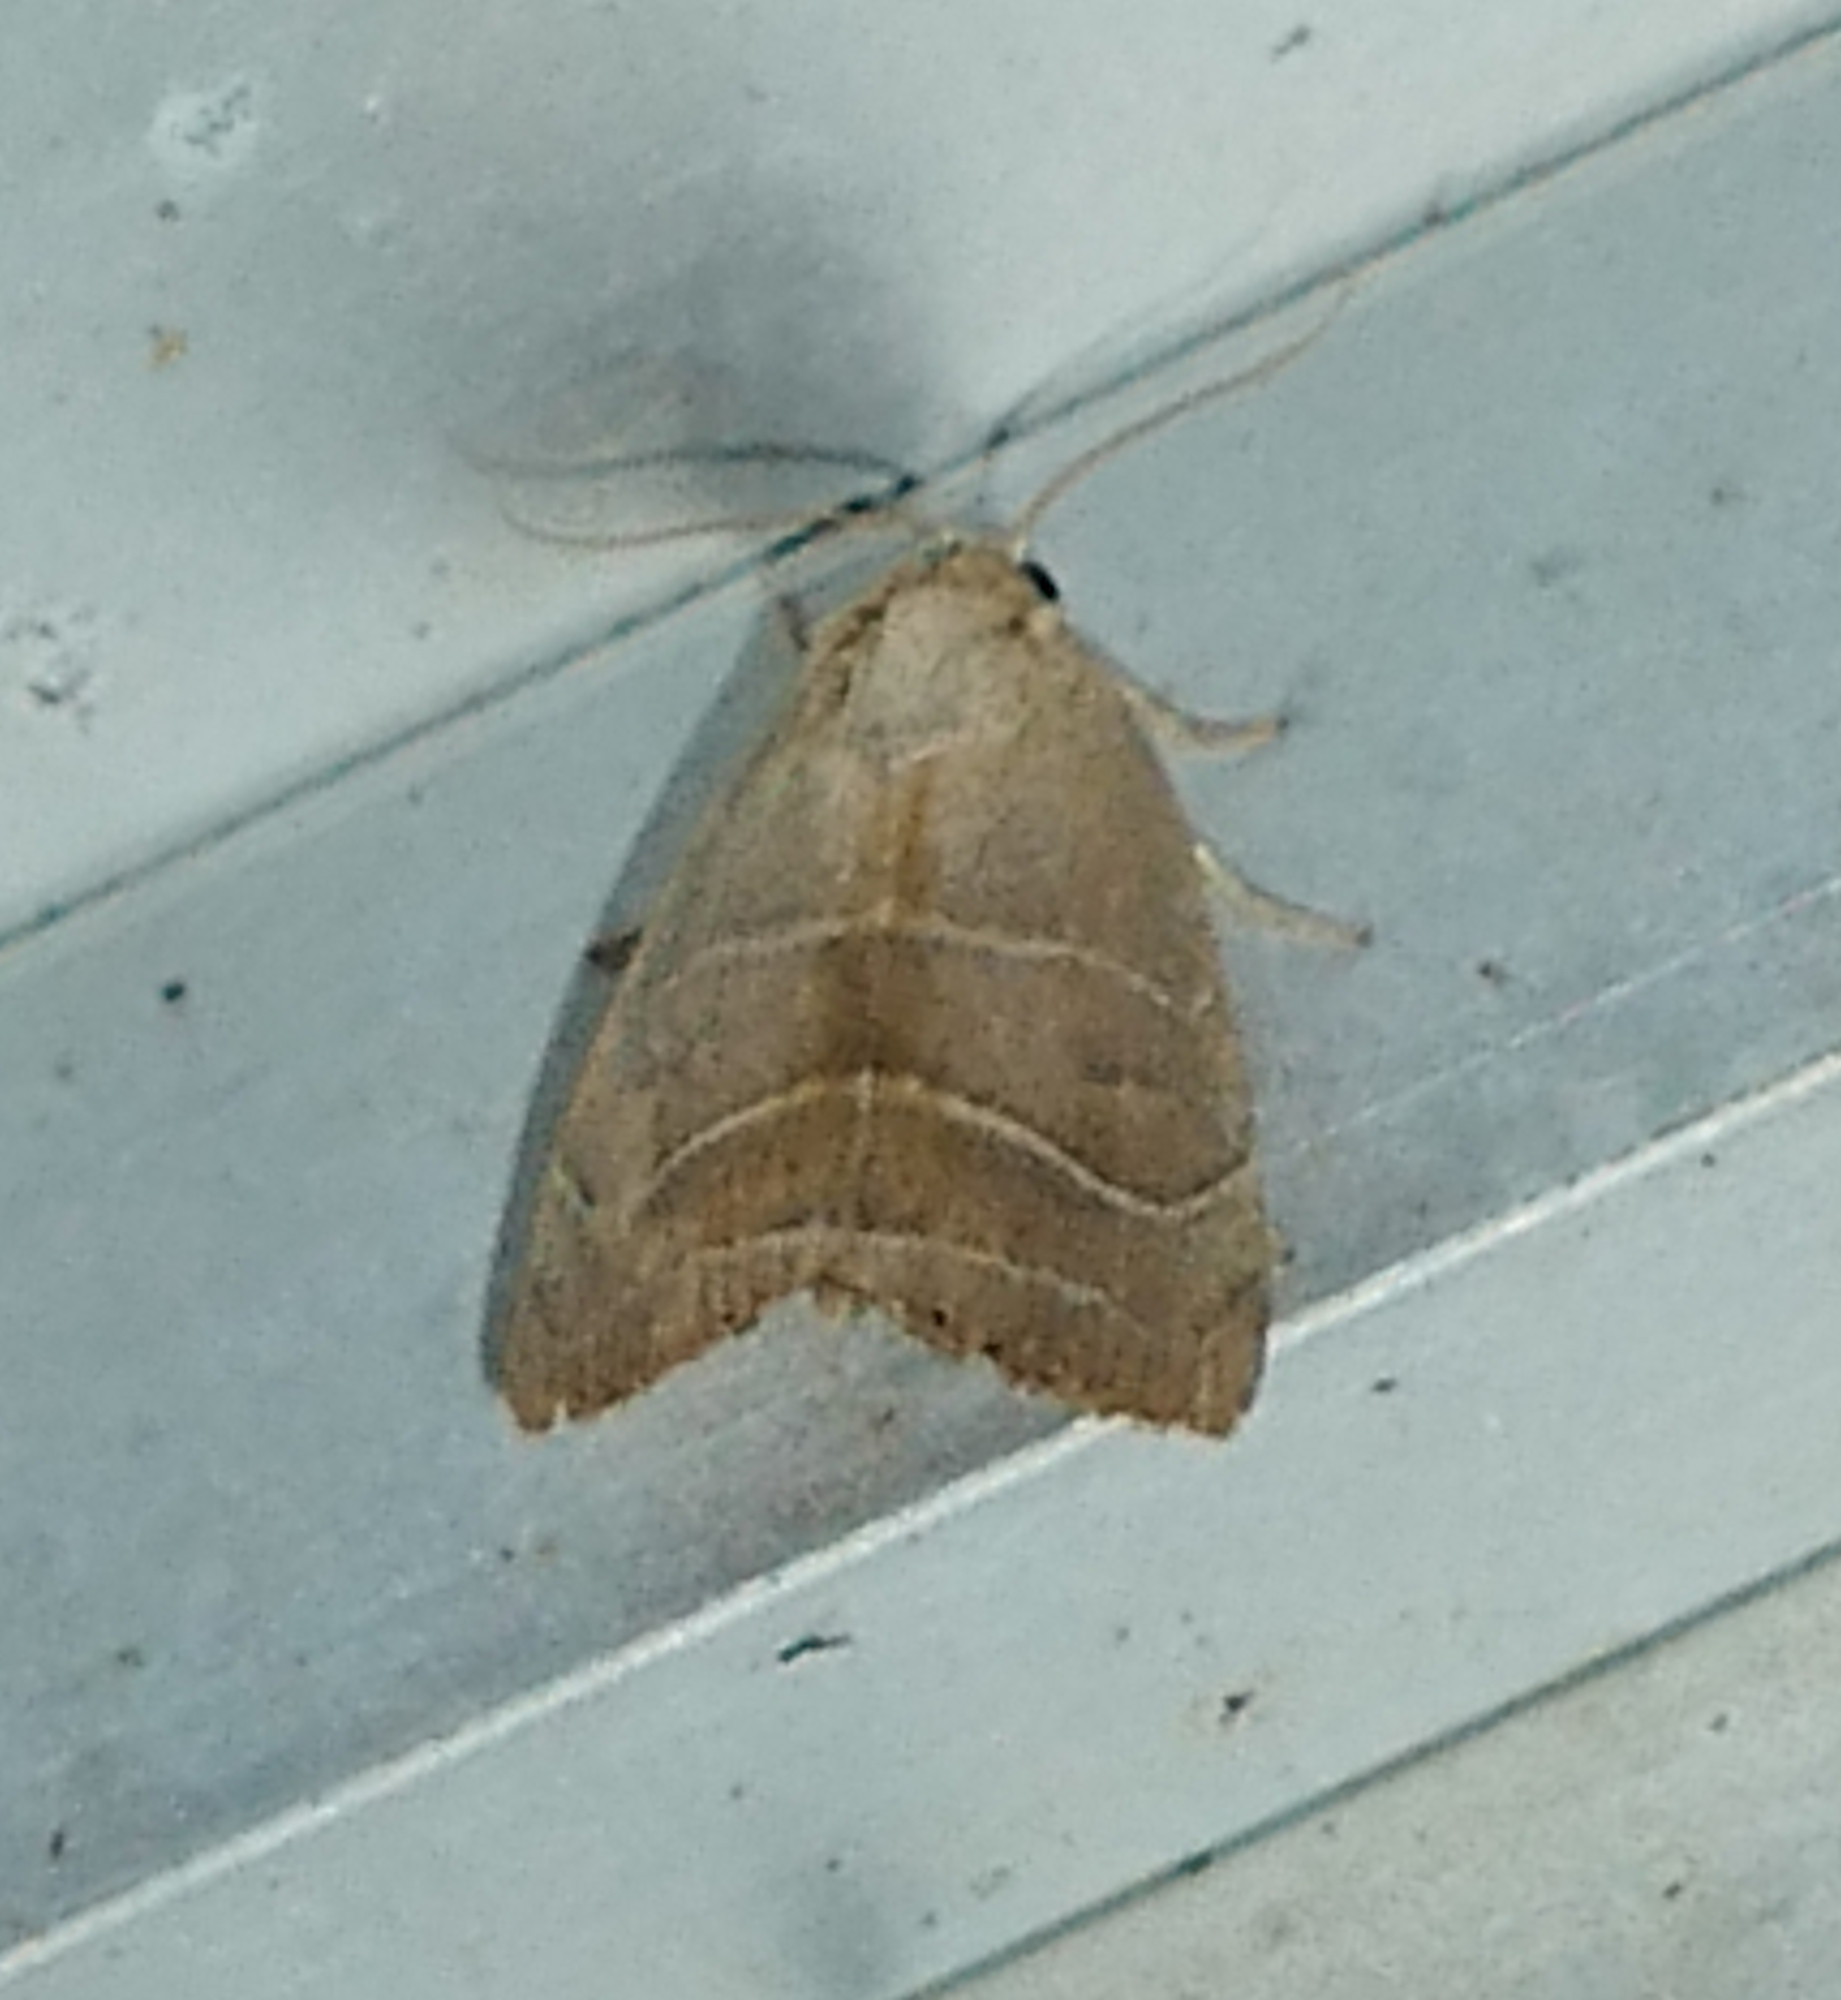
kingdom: Animalia
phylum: Arthropoda
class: Insecta
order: Lepidoptera
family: Noctuidae
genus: Bagisara
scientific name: Bagisara rectifascia
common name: Straight lined mallow moth
